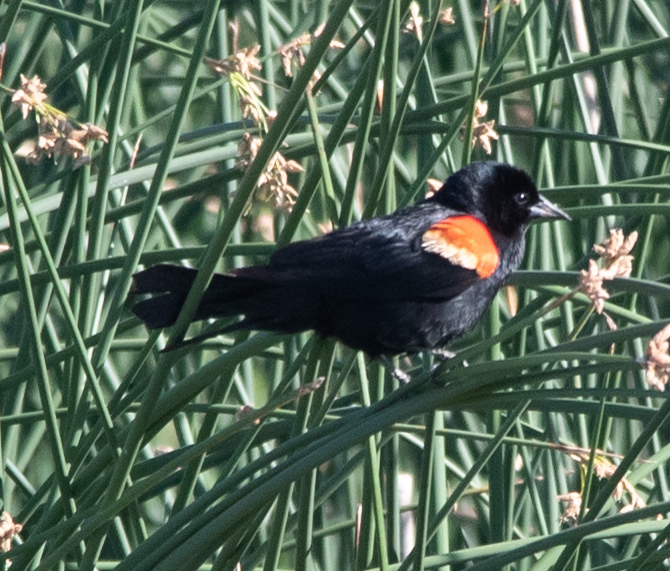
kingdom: Animalia
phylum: Chordata
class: Aves
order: Passeriformes
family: Icteridae
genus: Agelaius
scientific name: Agelaius phoeniceus
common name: Red-winged blackbird
